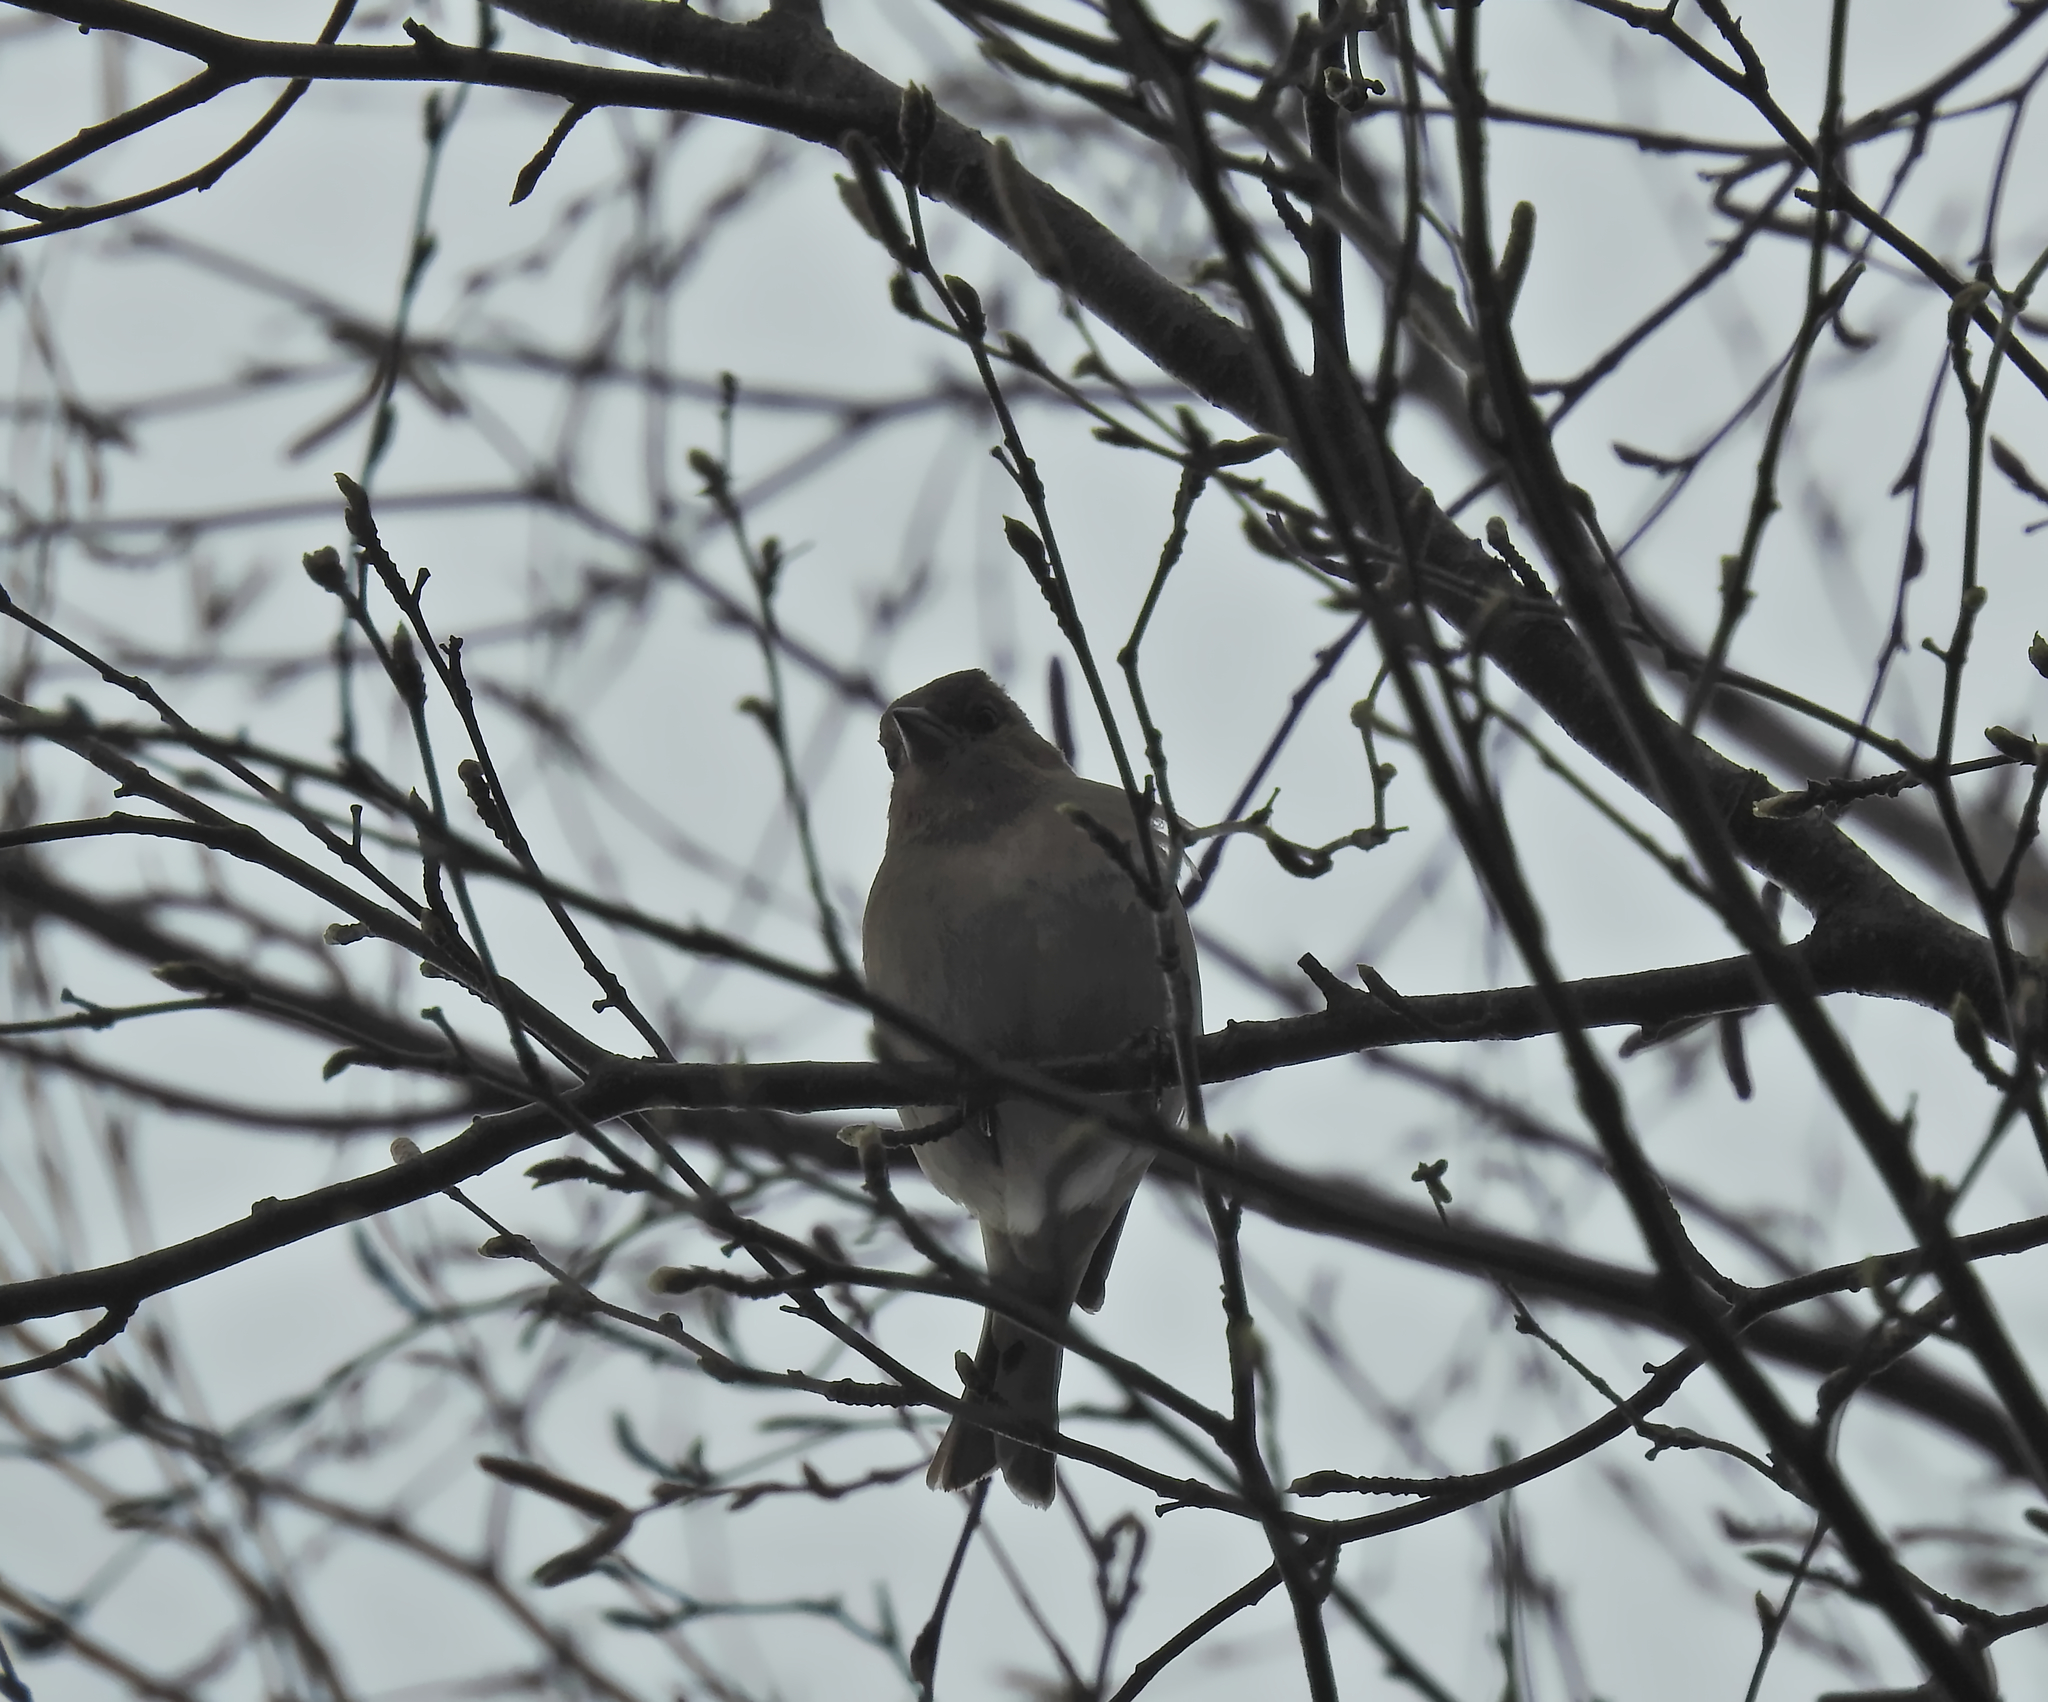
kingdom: Animalia
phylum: Chordata
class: Aves
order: Passeriformes
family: Fringillidae
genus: Fringilla
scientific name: Fringilla coelebs
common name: Common chaffinch
